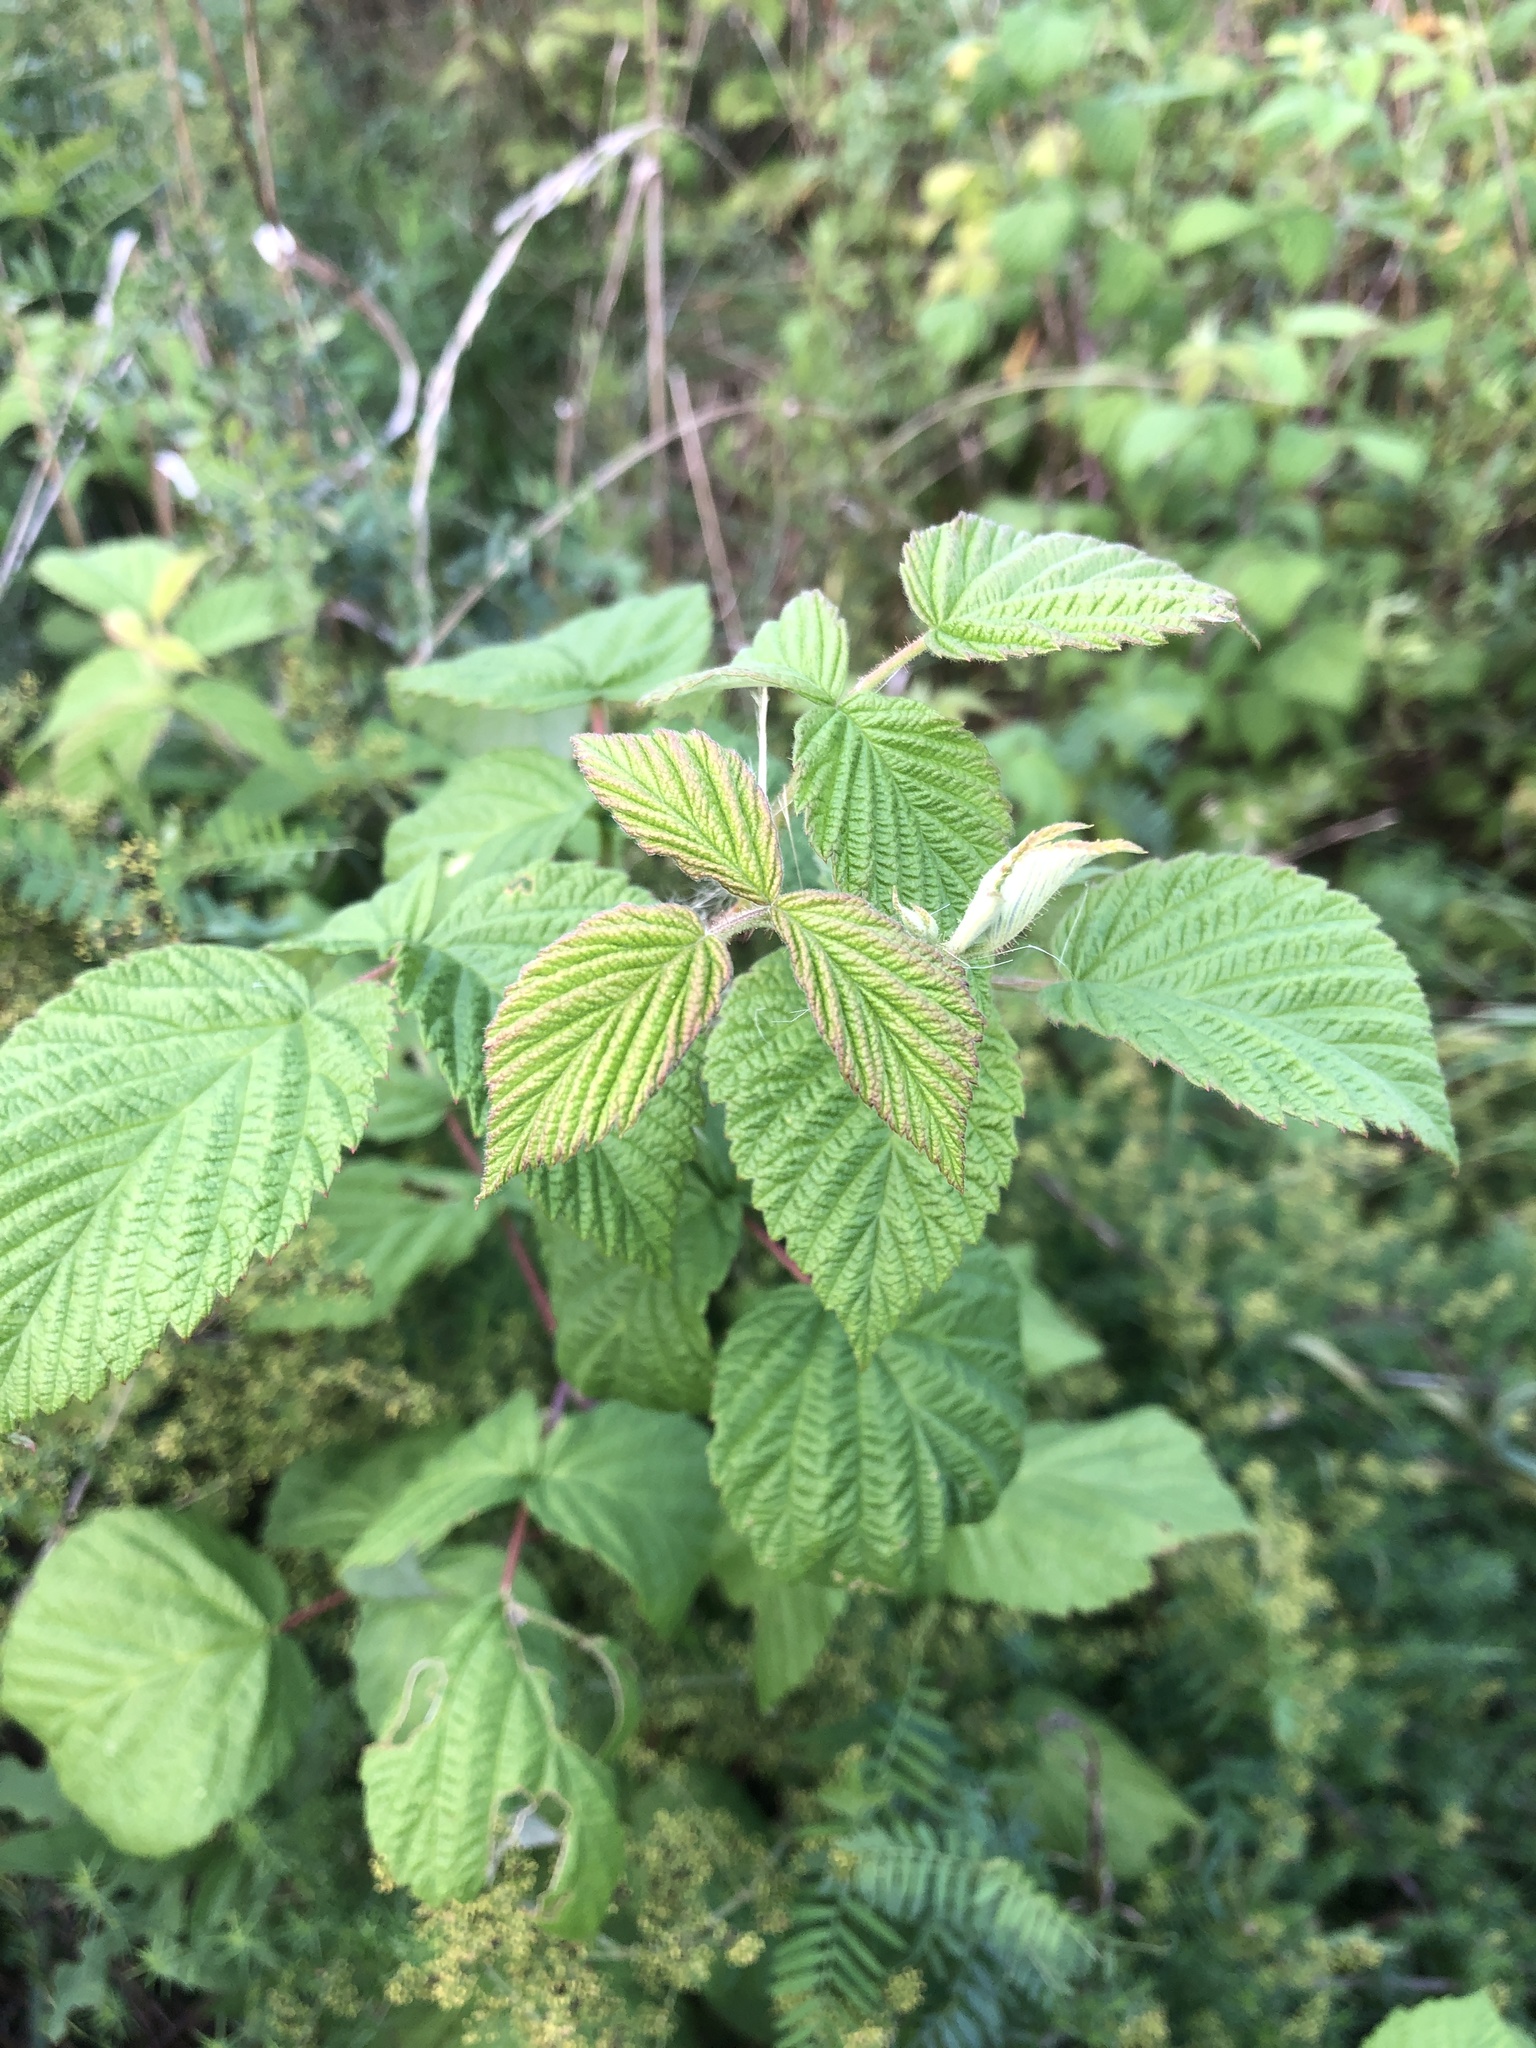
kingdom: Plantae
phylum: Tracheophyta
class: Magnoliopsida
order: Rosales
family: Rosaceae
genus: Rubus
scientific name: Rubus idaeus
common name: Raspberry
